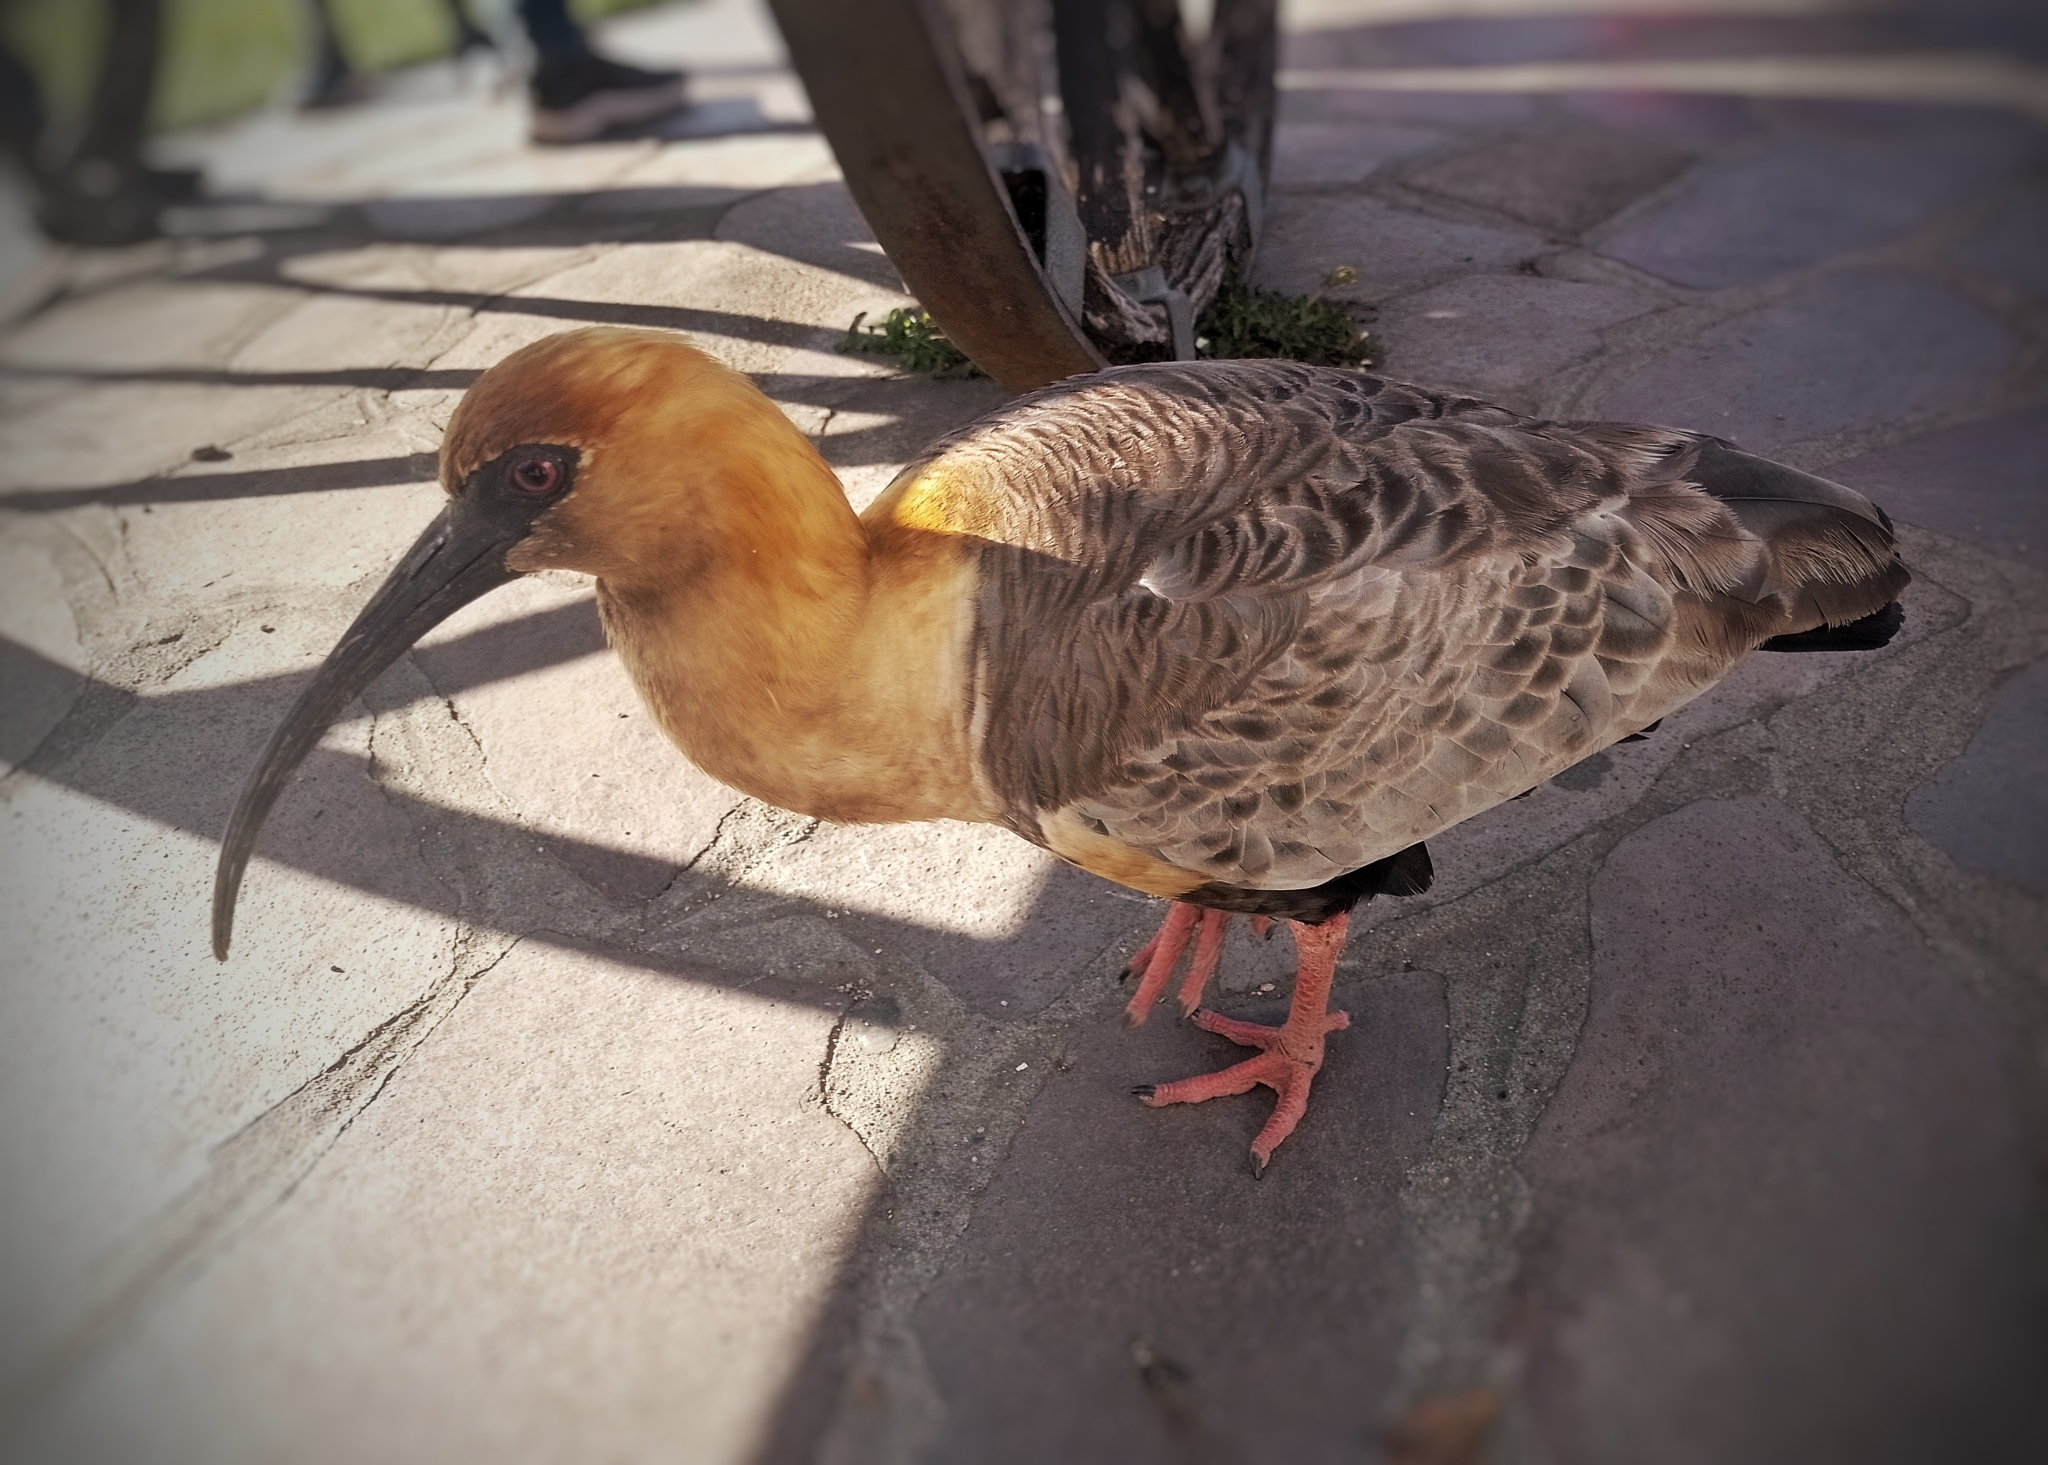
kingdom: Animalia
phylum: Chordata
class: Aves
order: Pelecaniformes
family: Threskiornithidae
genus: Theristicus
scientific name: Theristicus melanopis
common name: Black-faced ibis
